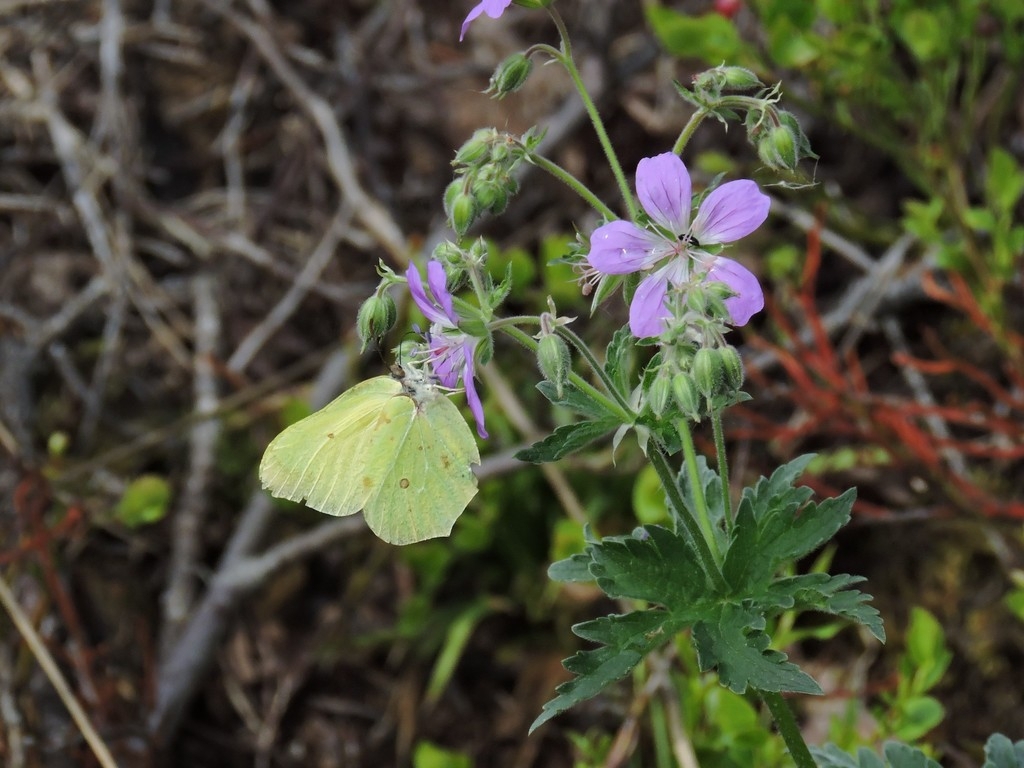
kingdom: Plantae
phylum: Tracheophyta
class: Magnoliopsida
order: Geraniales
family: Geraniaceae
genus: Geranium
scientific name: Geranium sylvaticum
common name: Wood crane's-bill
